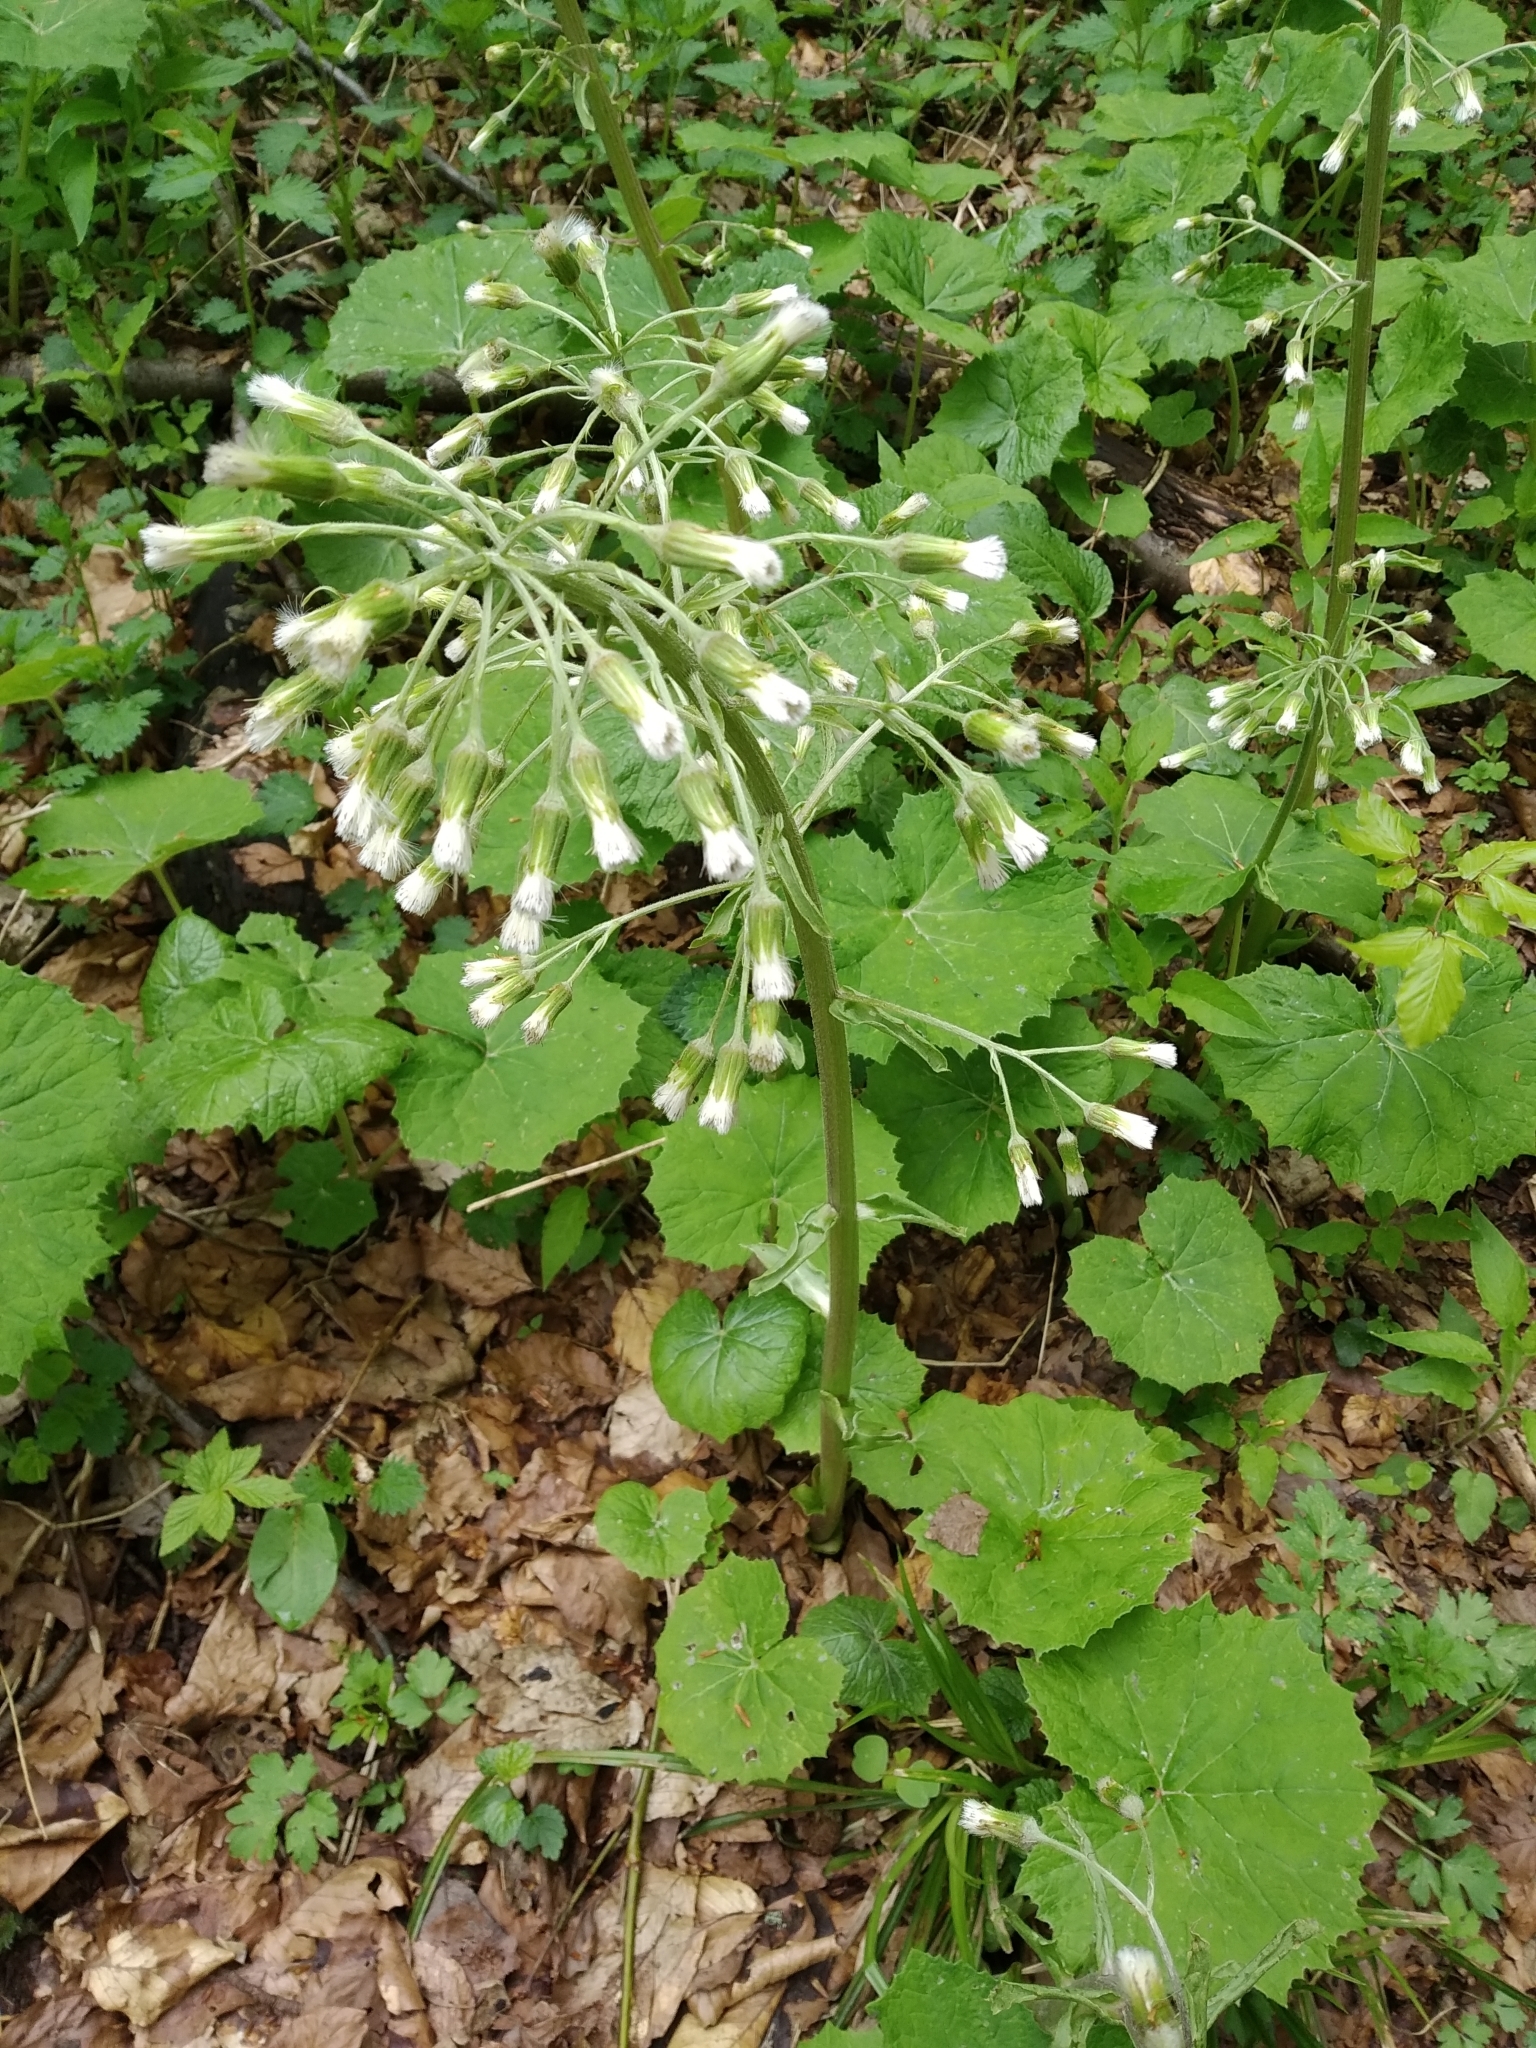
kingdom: Plantae
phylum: Tracheophyta
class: Magnoliopsida
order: Asterales
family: Asteraceae
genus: Petasites
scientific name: Petasites albus
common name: White butterbur
